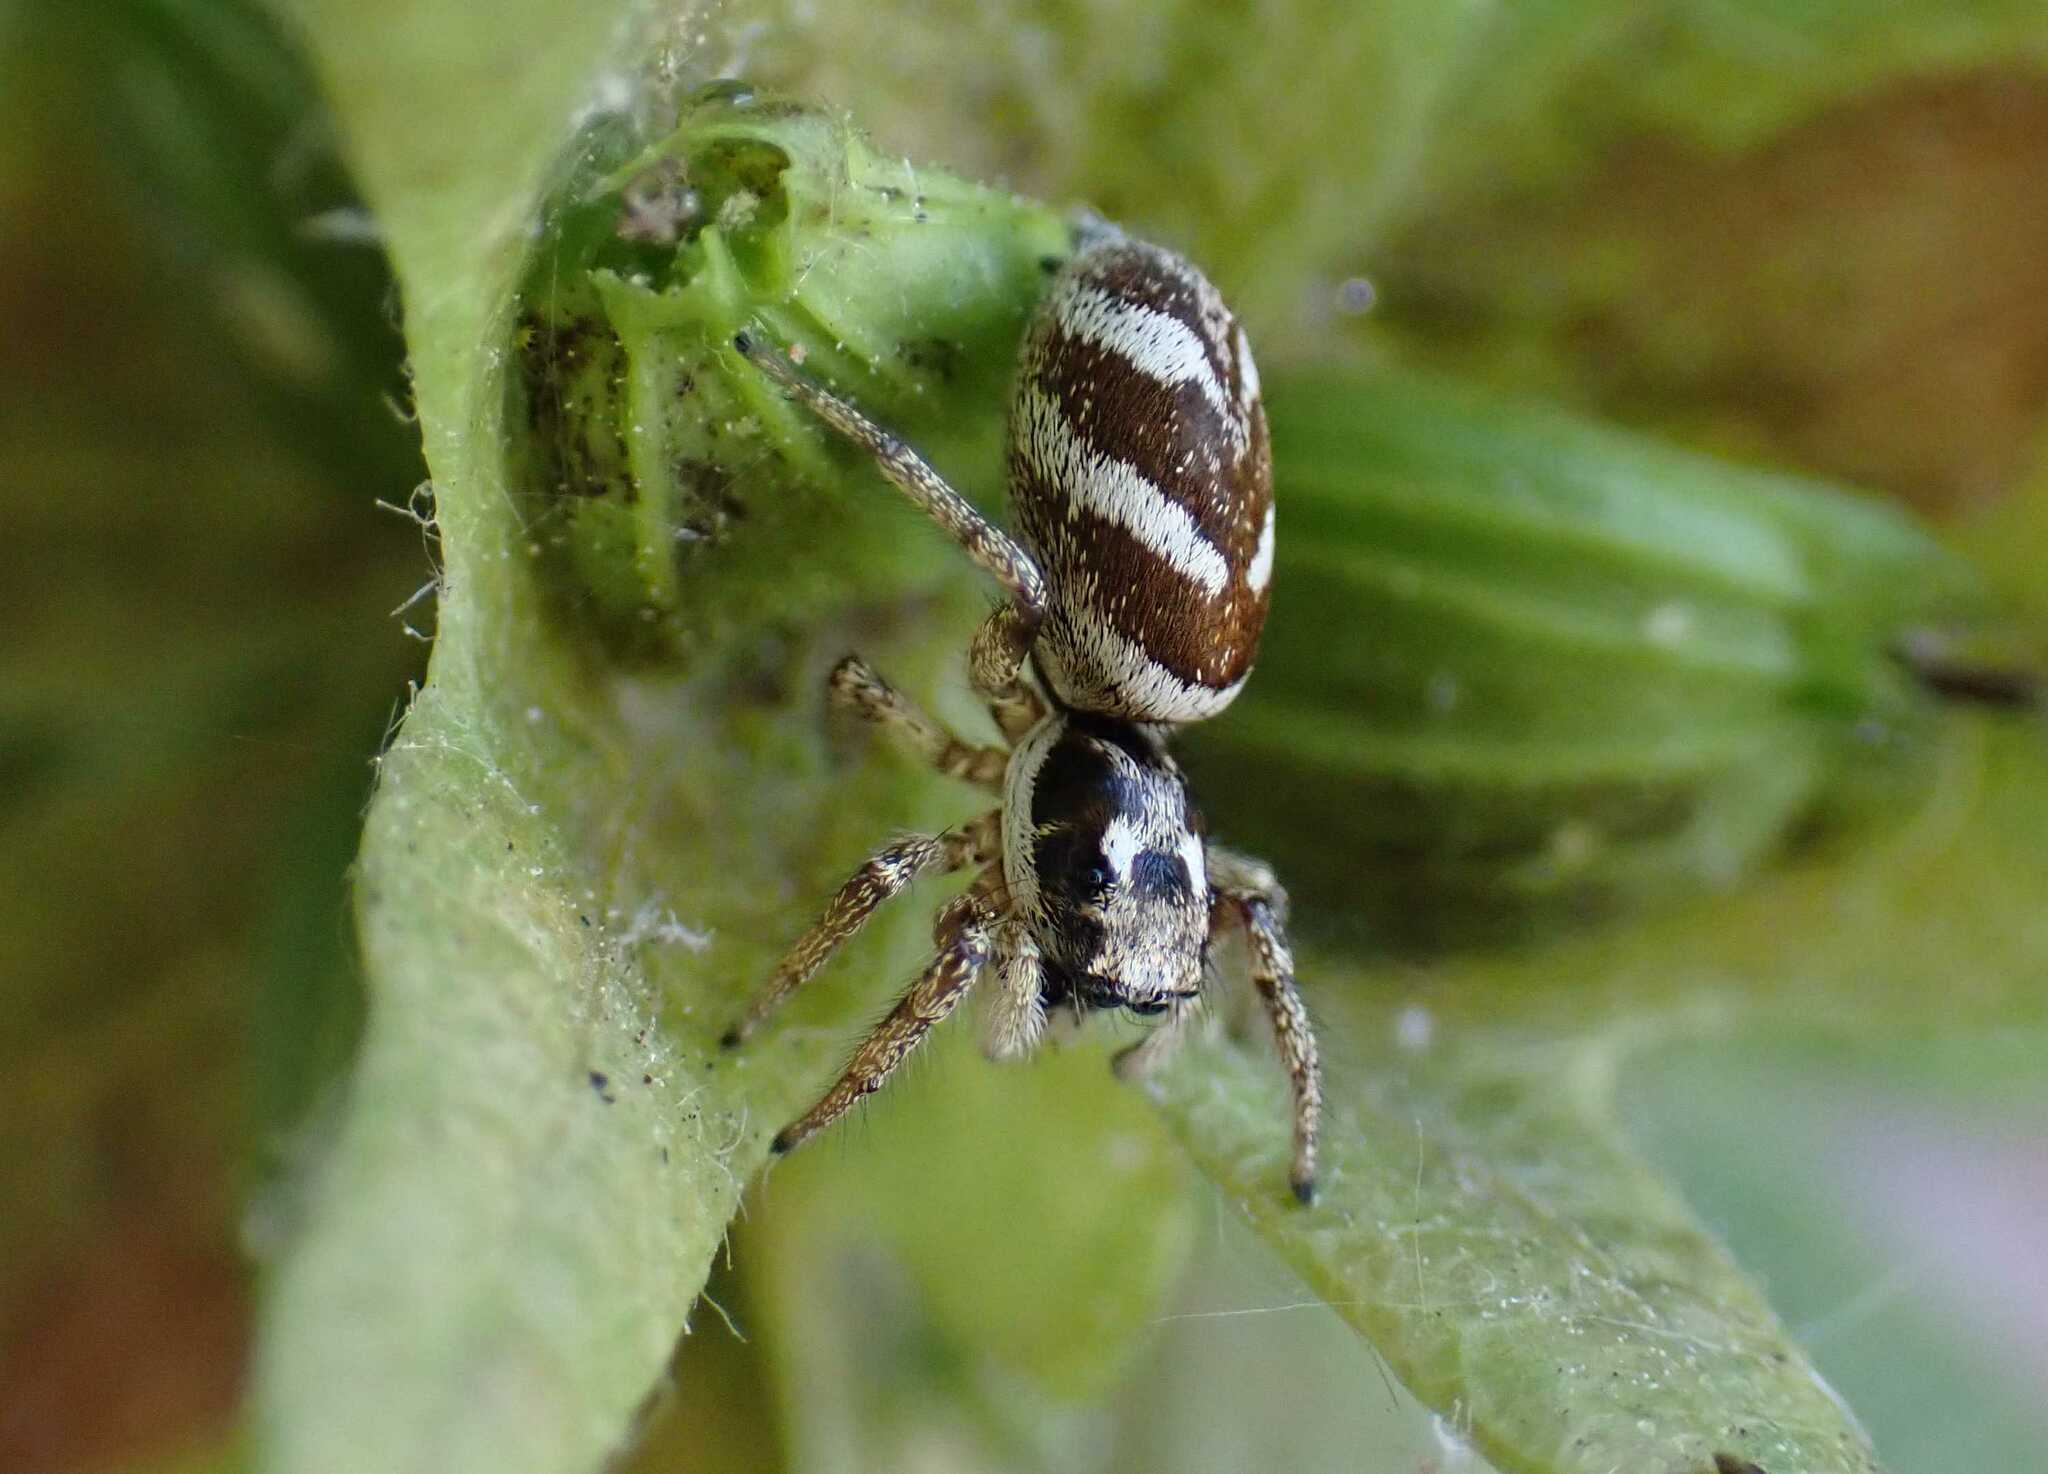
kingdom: Animalia
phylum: Arthropoda
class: Arachnida
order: Araneae
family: Salticidae
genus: Salticus
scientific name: Salticus scenicus
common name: Zebra jumper
